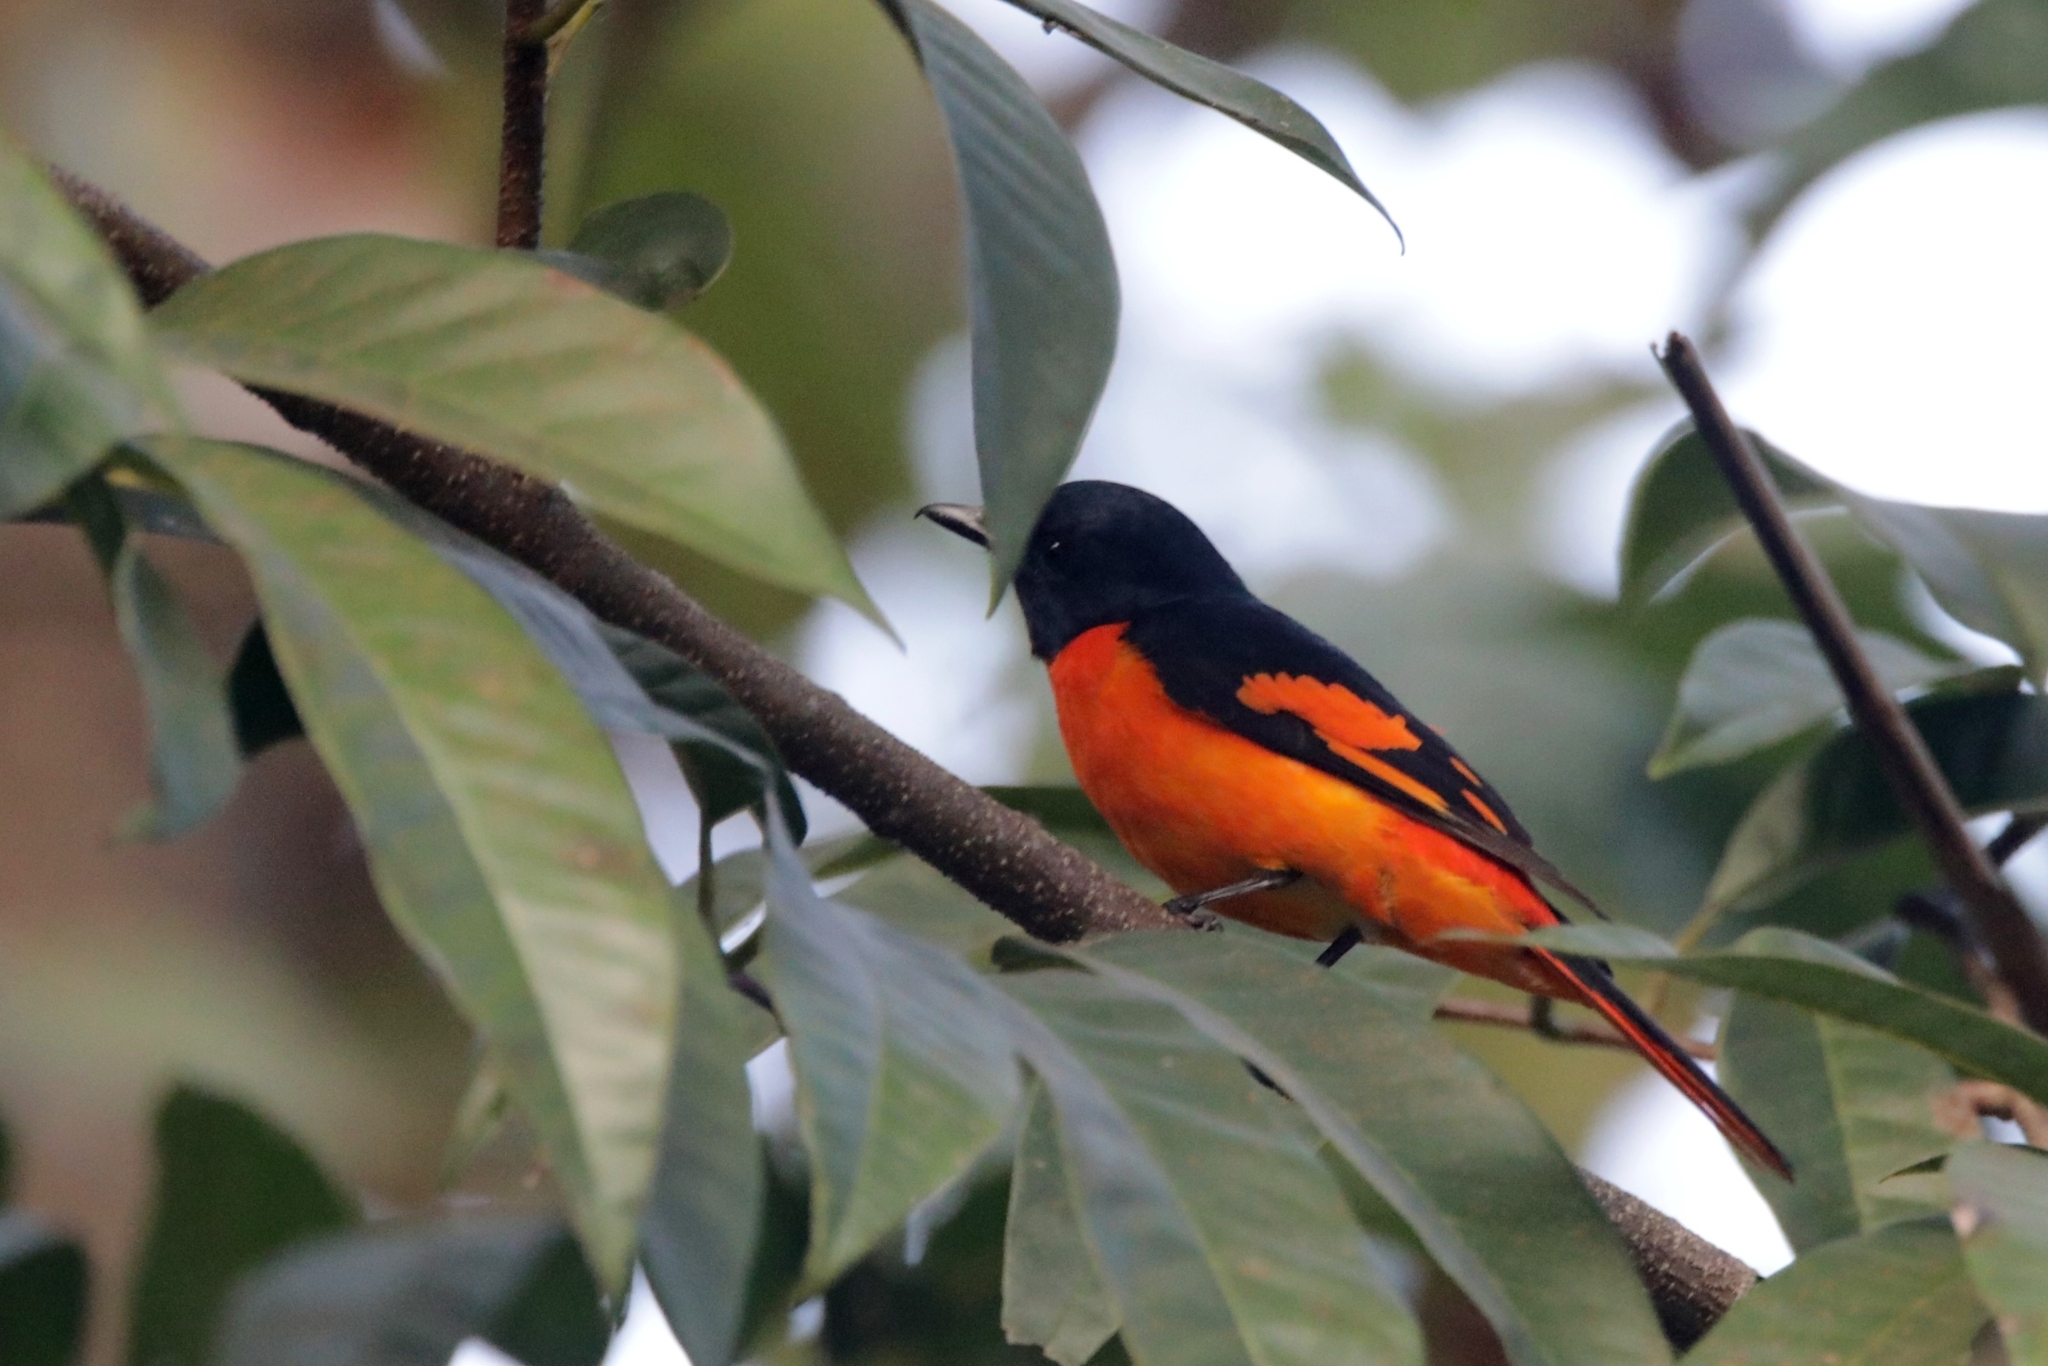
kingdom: Animalia
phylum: Chordata
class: Aves
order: Passeriformes
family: Campephagidae
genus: Pericrocotus
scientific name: Pericrocotus flammeus
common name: Orange minivet
